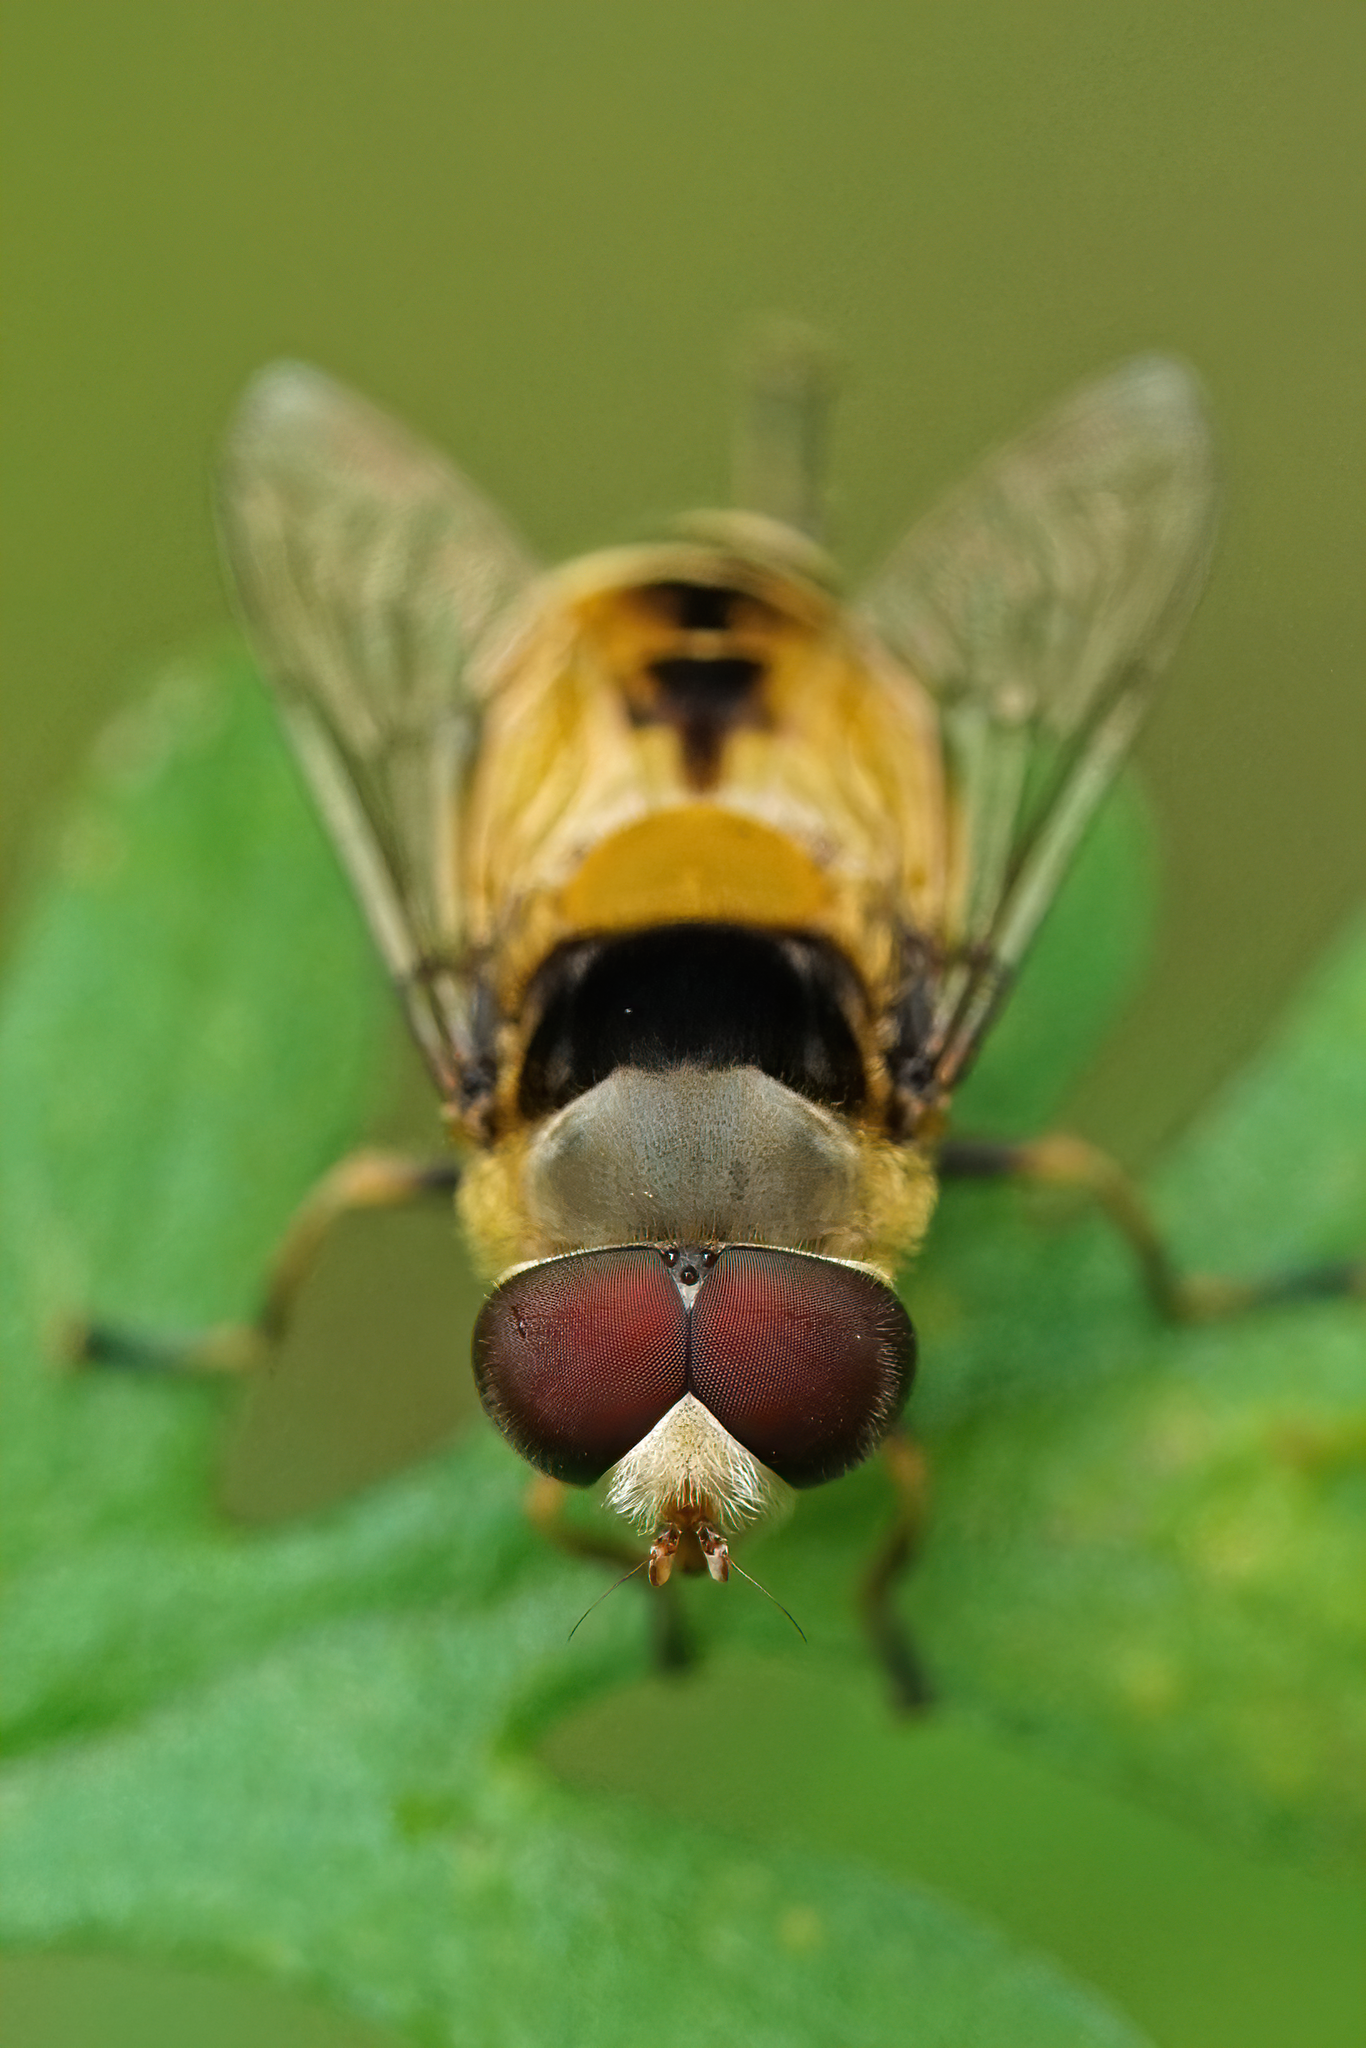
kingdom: Animalia
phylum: Arthropoda
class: Insecta
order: Diptera
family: Syrphidae
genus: Palpada
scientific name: Palpada pusilla
